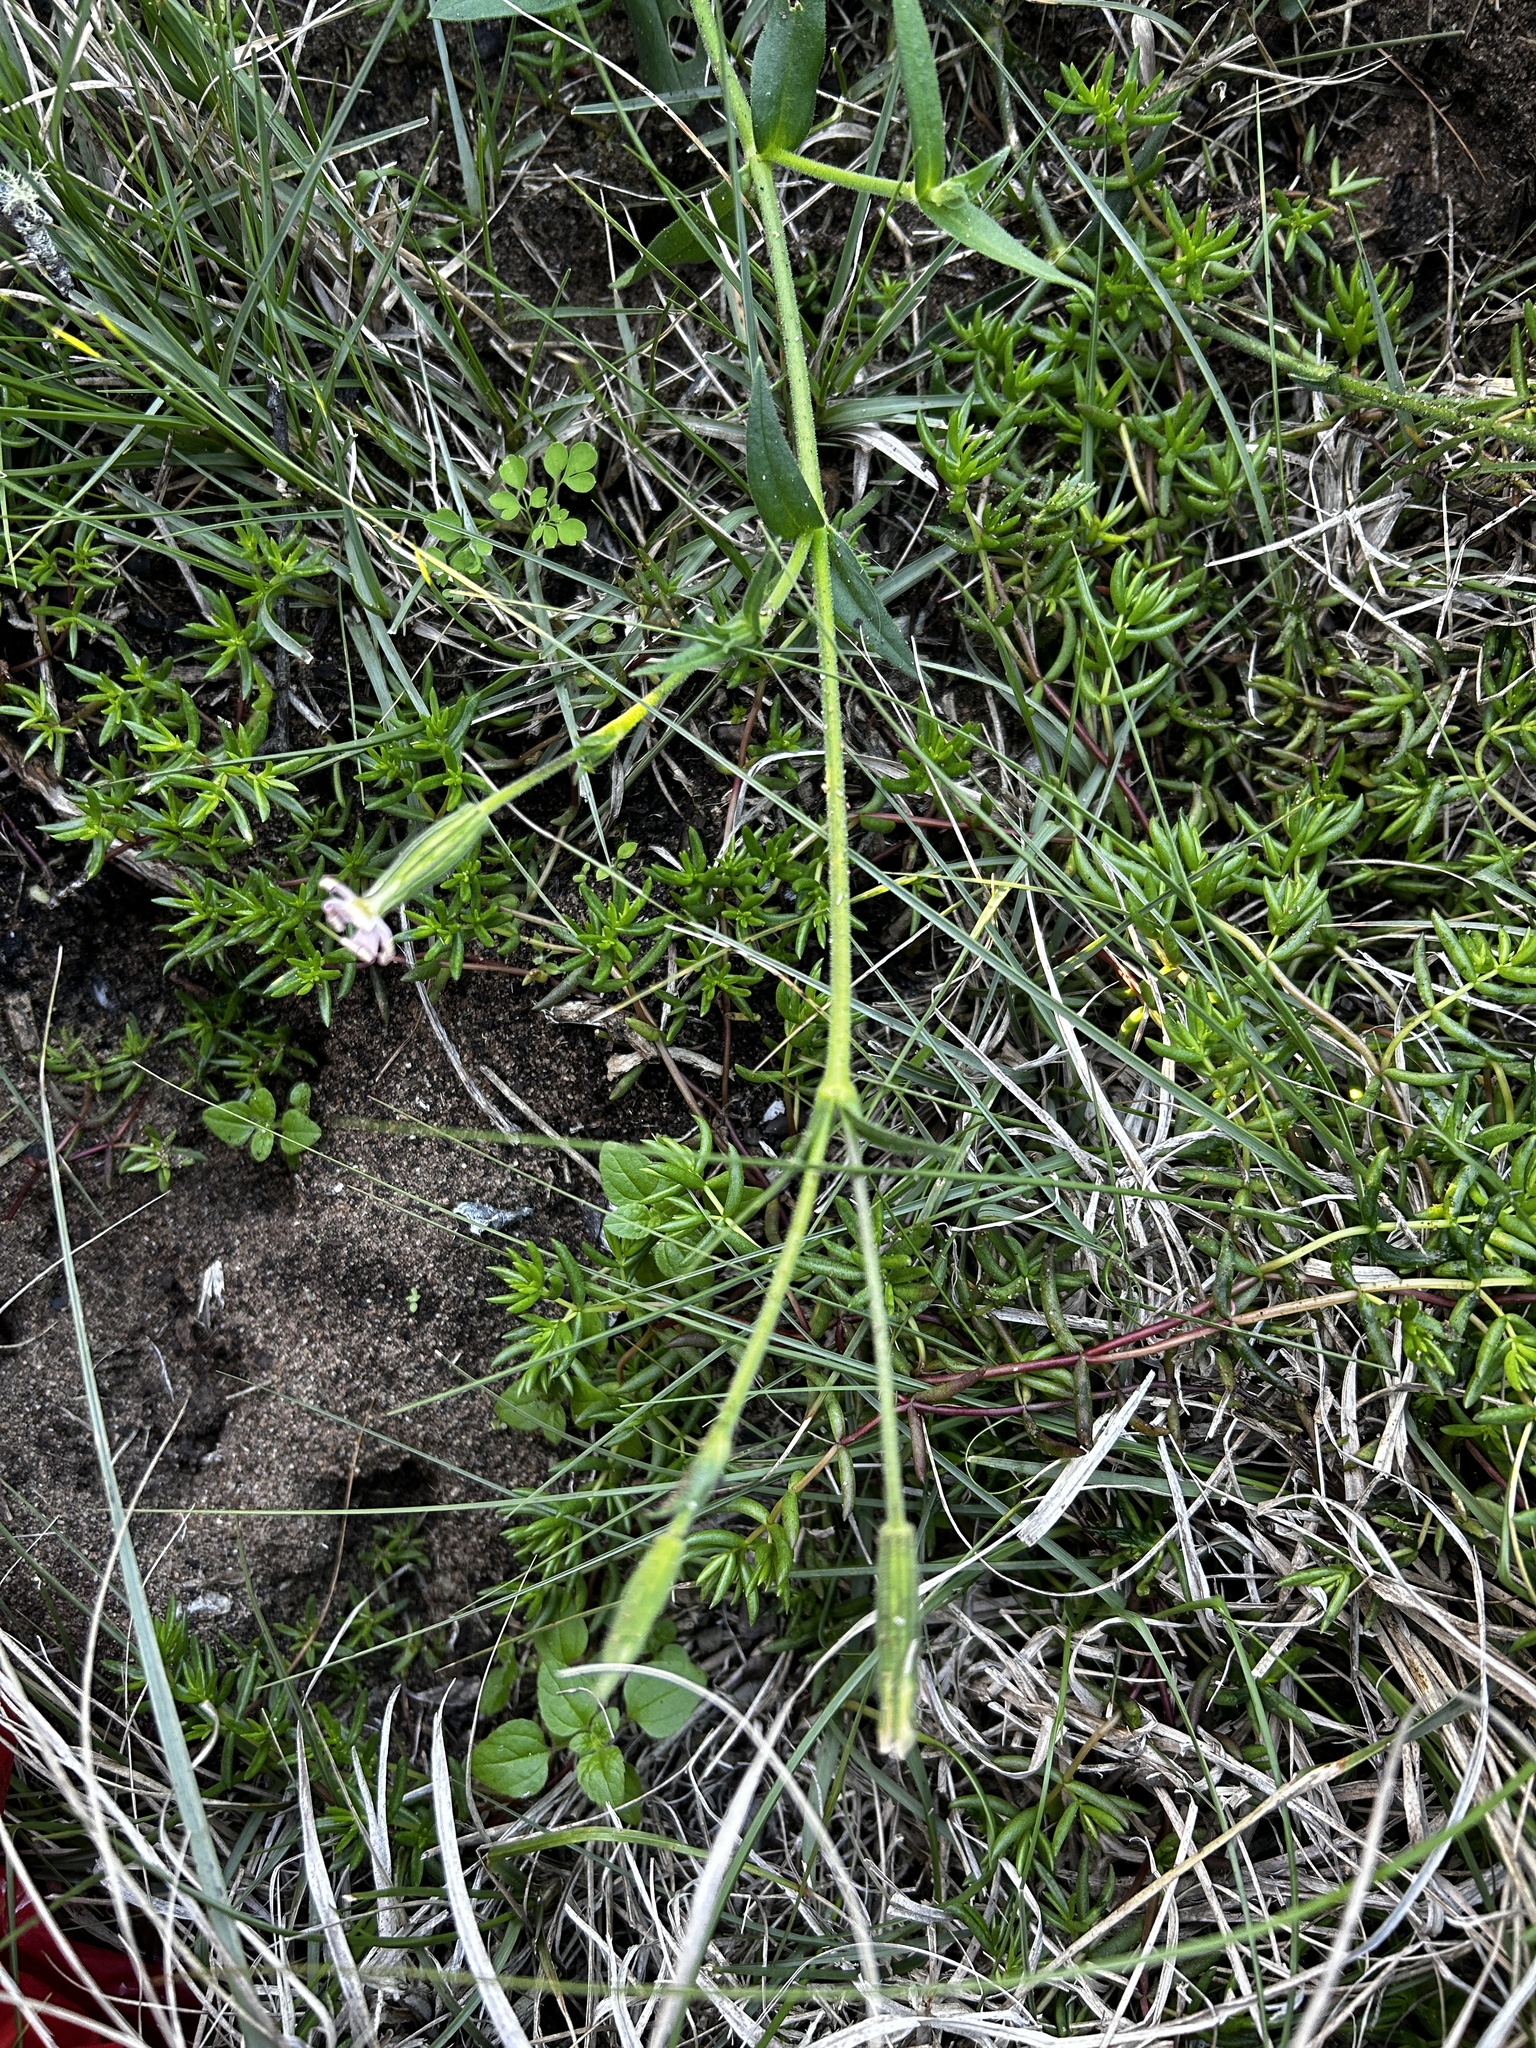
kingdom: Plantae
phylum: Tracheophyta
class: Magnoliopsida
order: Caryophyllales
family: Caryophyllaceae
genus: Silene
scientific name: Silene undulata
